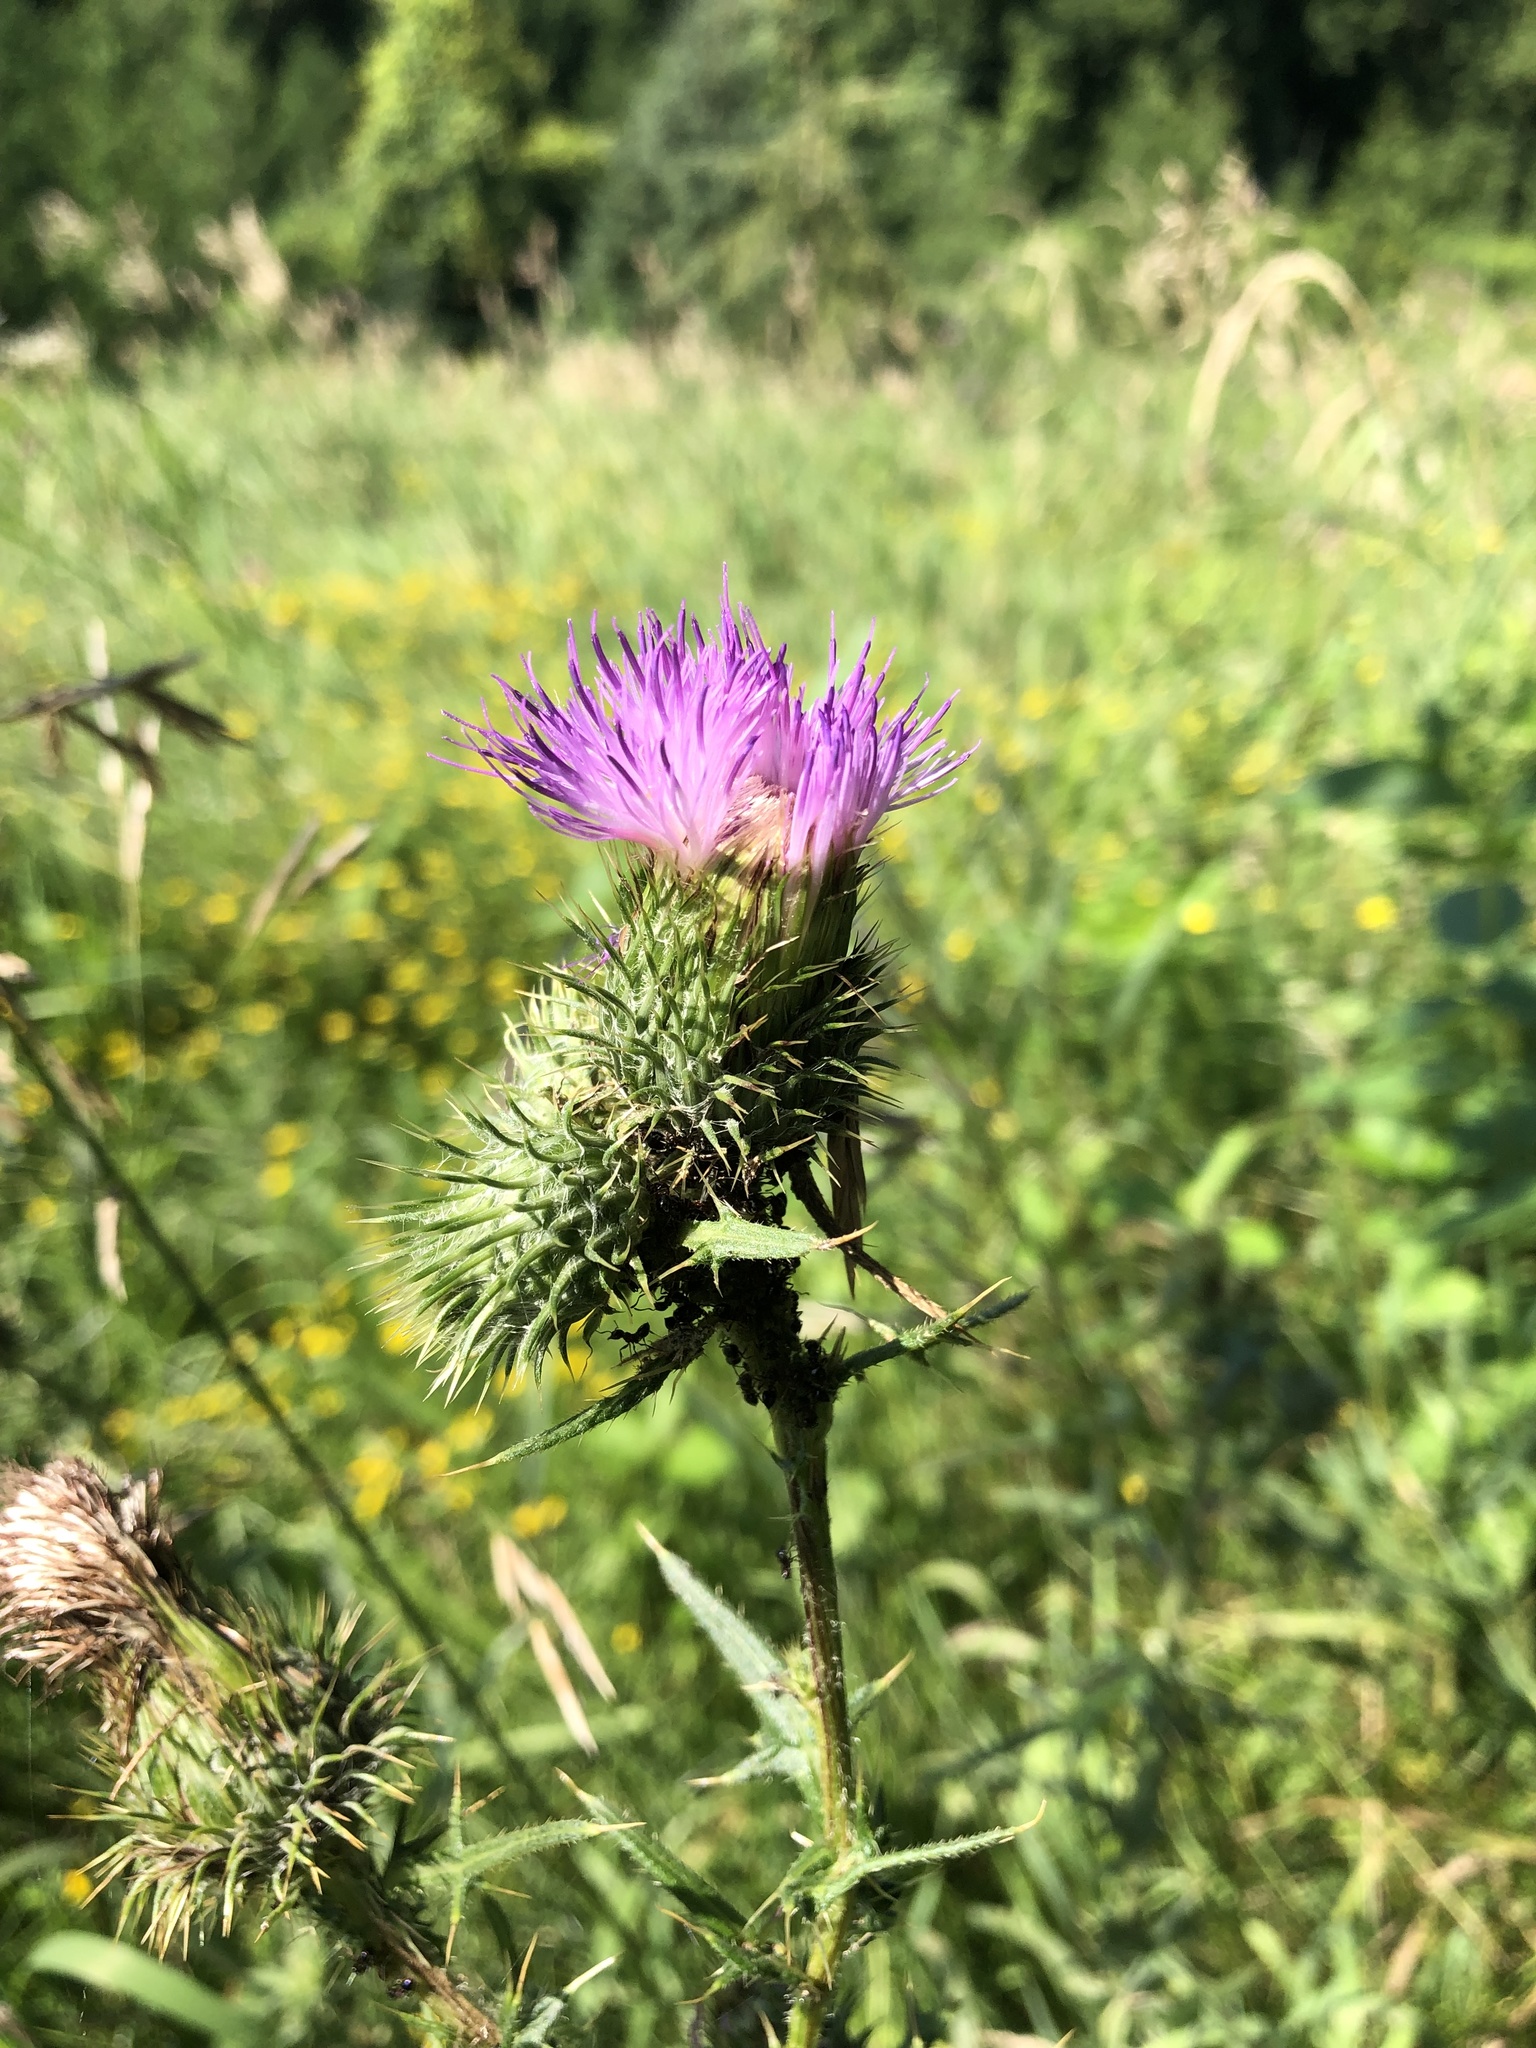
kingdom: Plantae
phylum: Tracheophyta
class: Magnoliopsida
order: Asterales
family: Asteraceae
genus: Cirsium
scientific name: Cirsium vulgare
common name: Bull thistle
